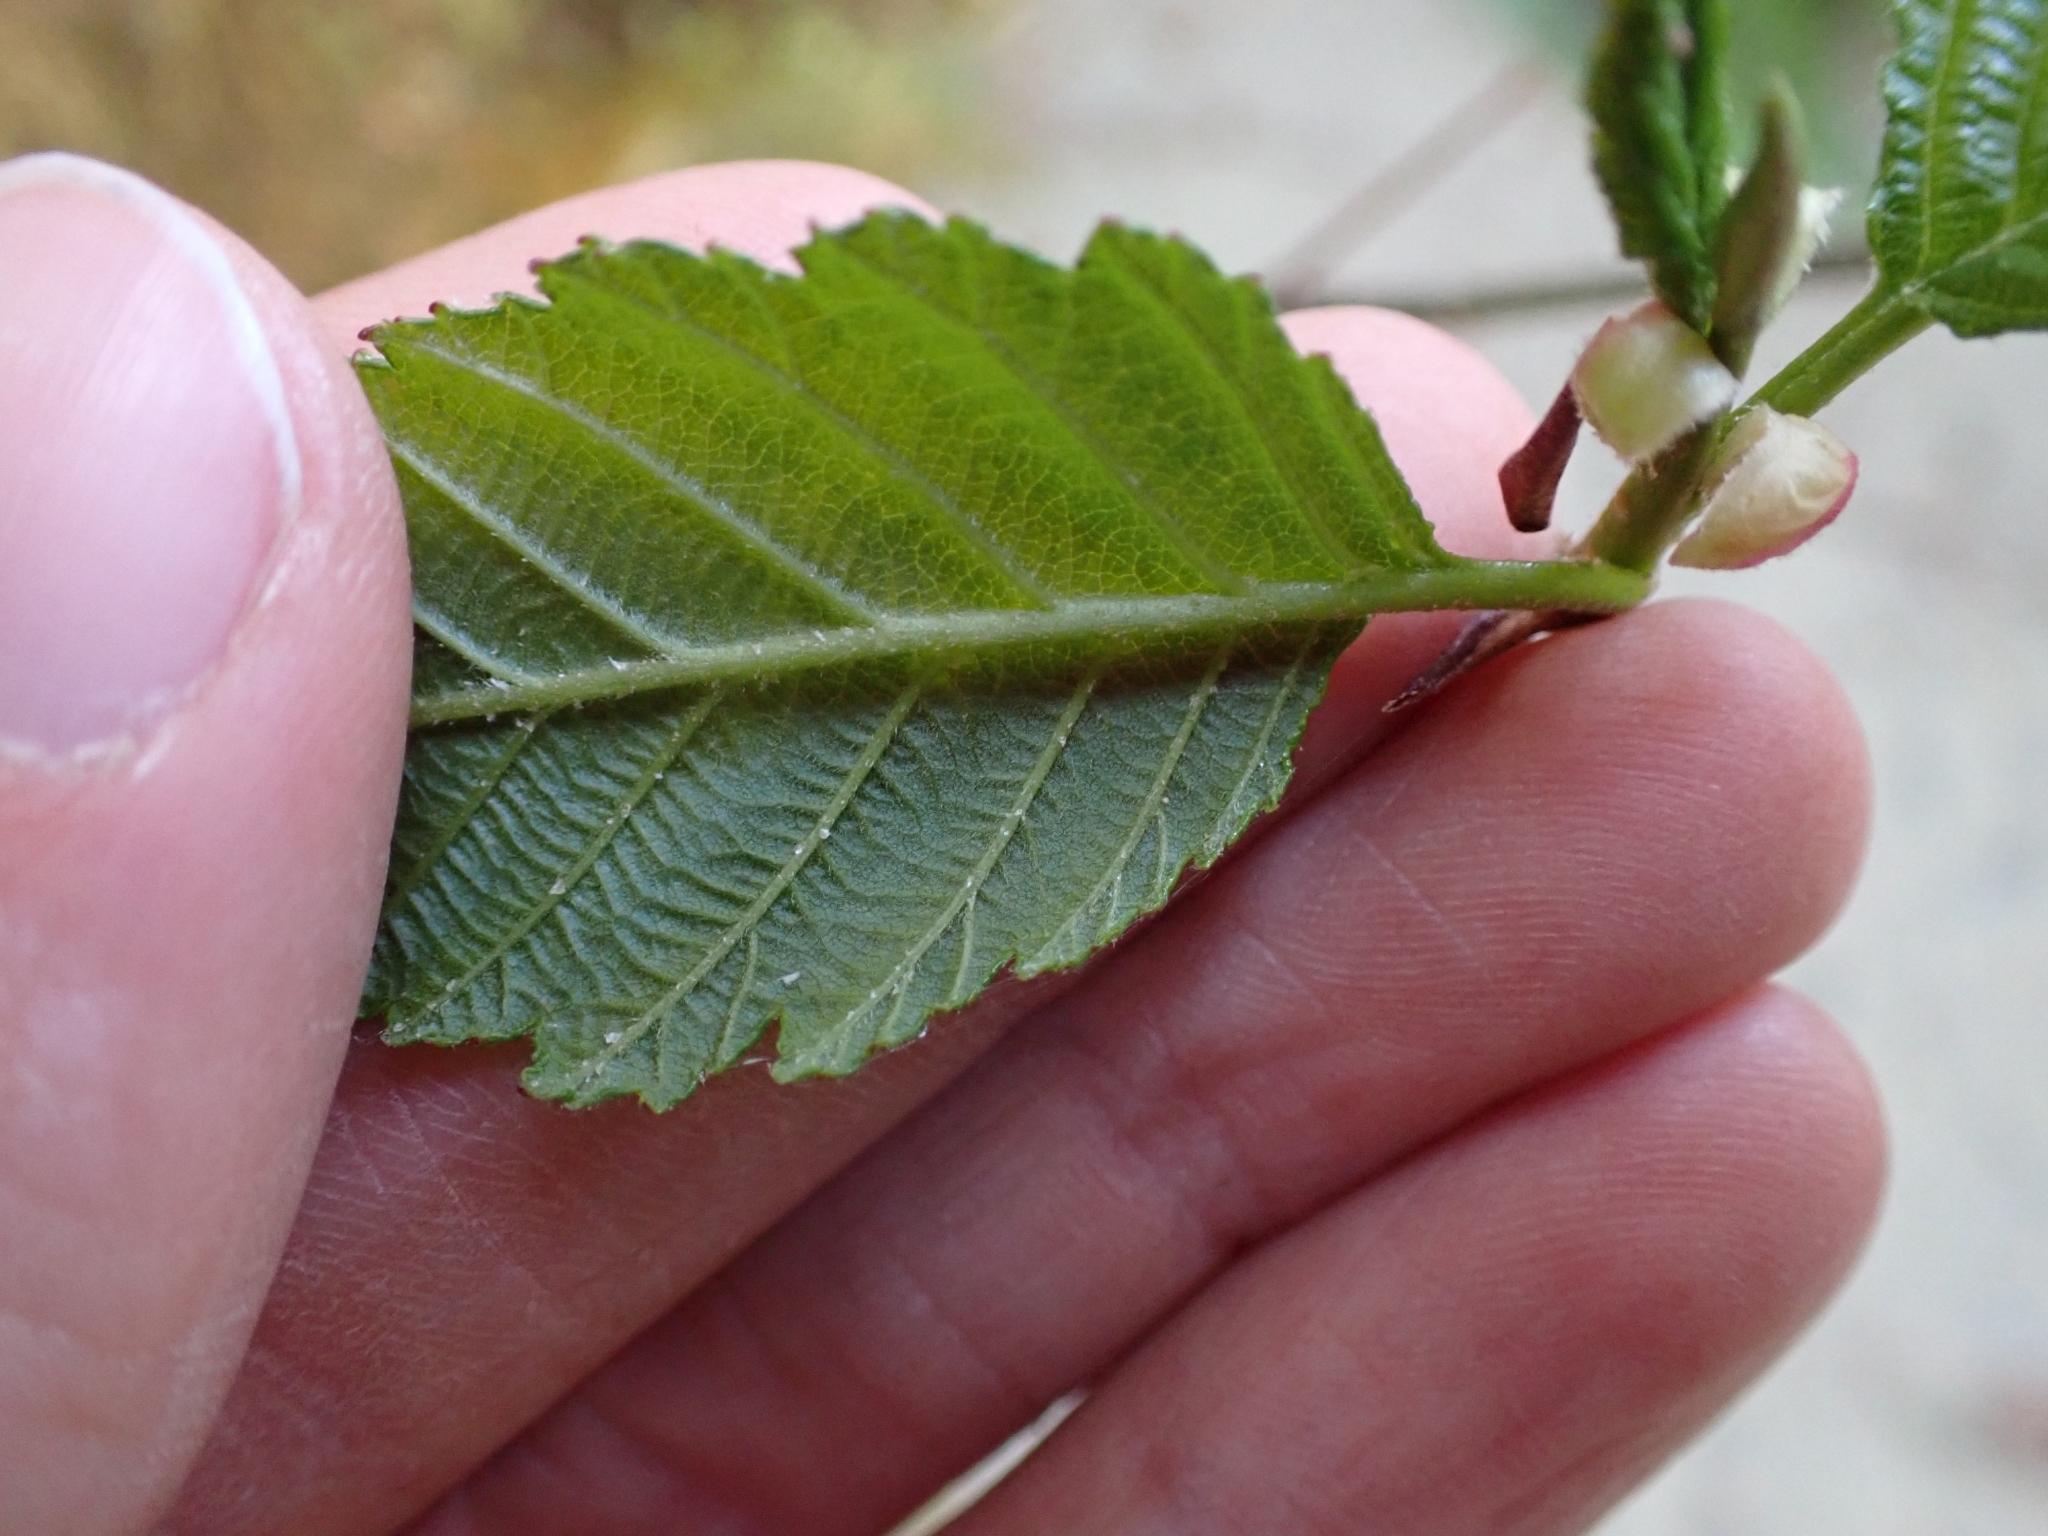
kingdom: Plantae
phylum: Tracheophyta
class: Magnoliopsida
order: Fagales
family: Betulaceae
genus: Alnus
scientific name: Alnus rubra
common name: Red alder
